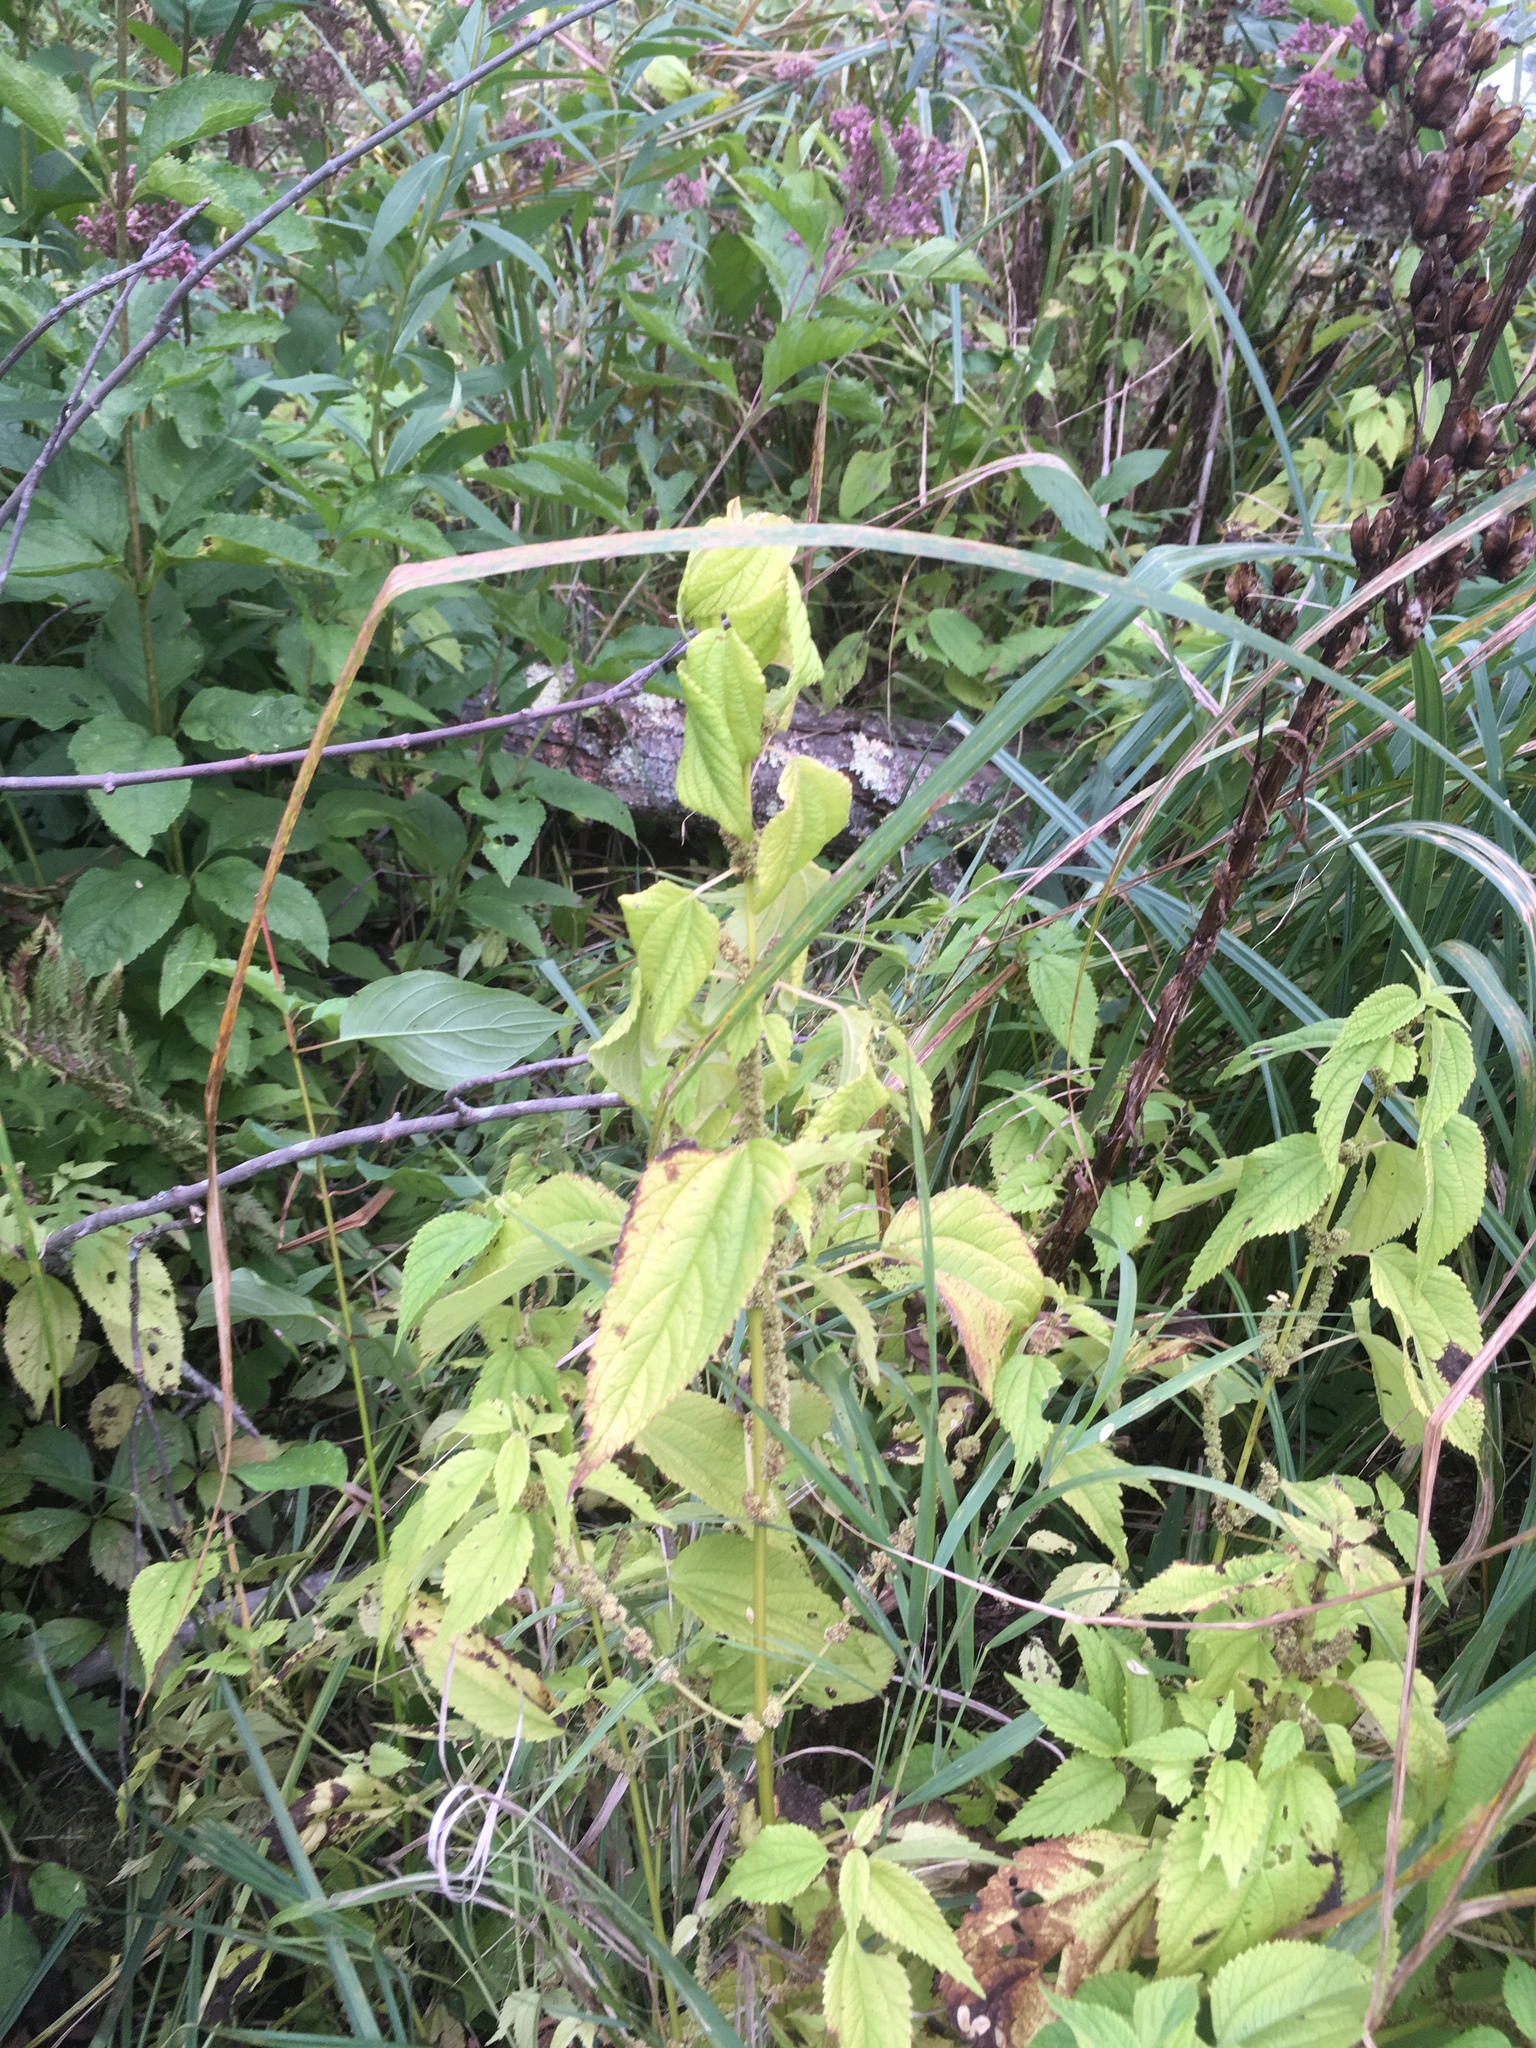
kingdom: Plantae
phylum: Tracheophyta
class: Magnoliopsida
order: Rosales
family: Urticaceae
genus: Boehmeria
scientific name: Boehmeria cylindrica
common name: Bog-hemp
